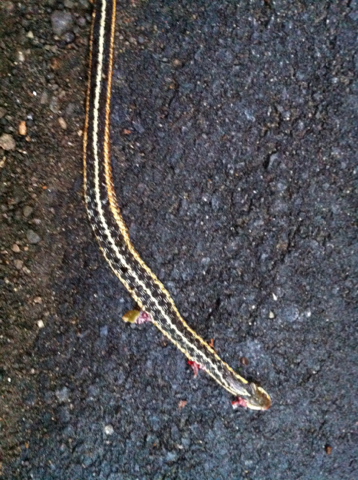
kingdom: Animalia
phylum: Chordata
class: Squamata
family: Colubridae
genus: Thamnophis
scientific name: Thamnophis sirtalis
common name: Common garter snake
